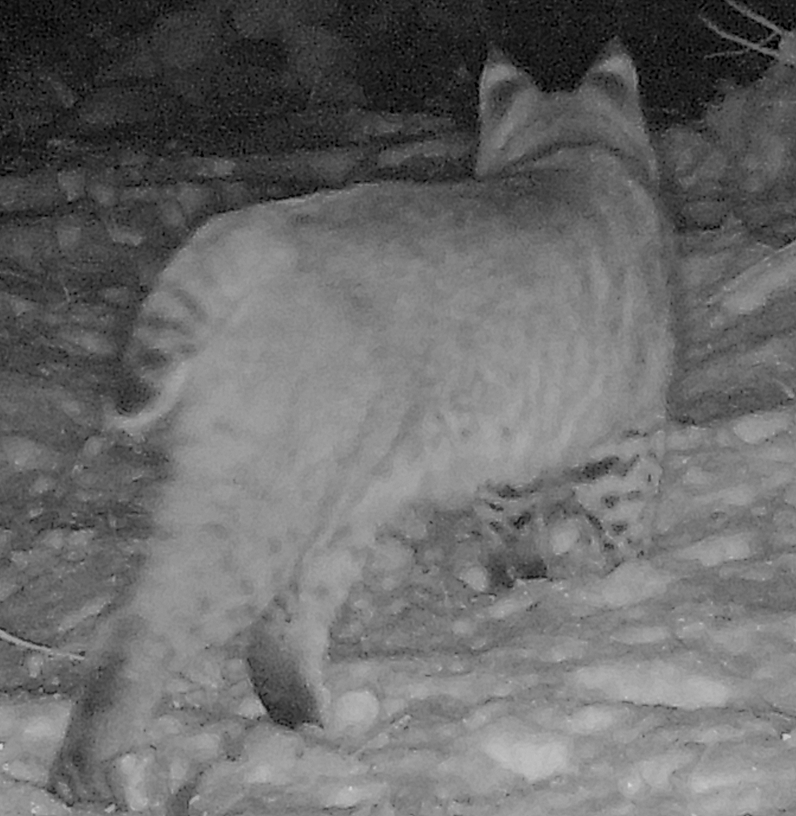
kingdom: Animalia
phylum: Chordata
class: Mammalia
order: Carnivora
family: Felidae
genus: Lynx
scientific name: Lynx rufus
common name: Bobcat
